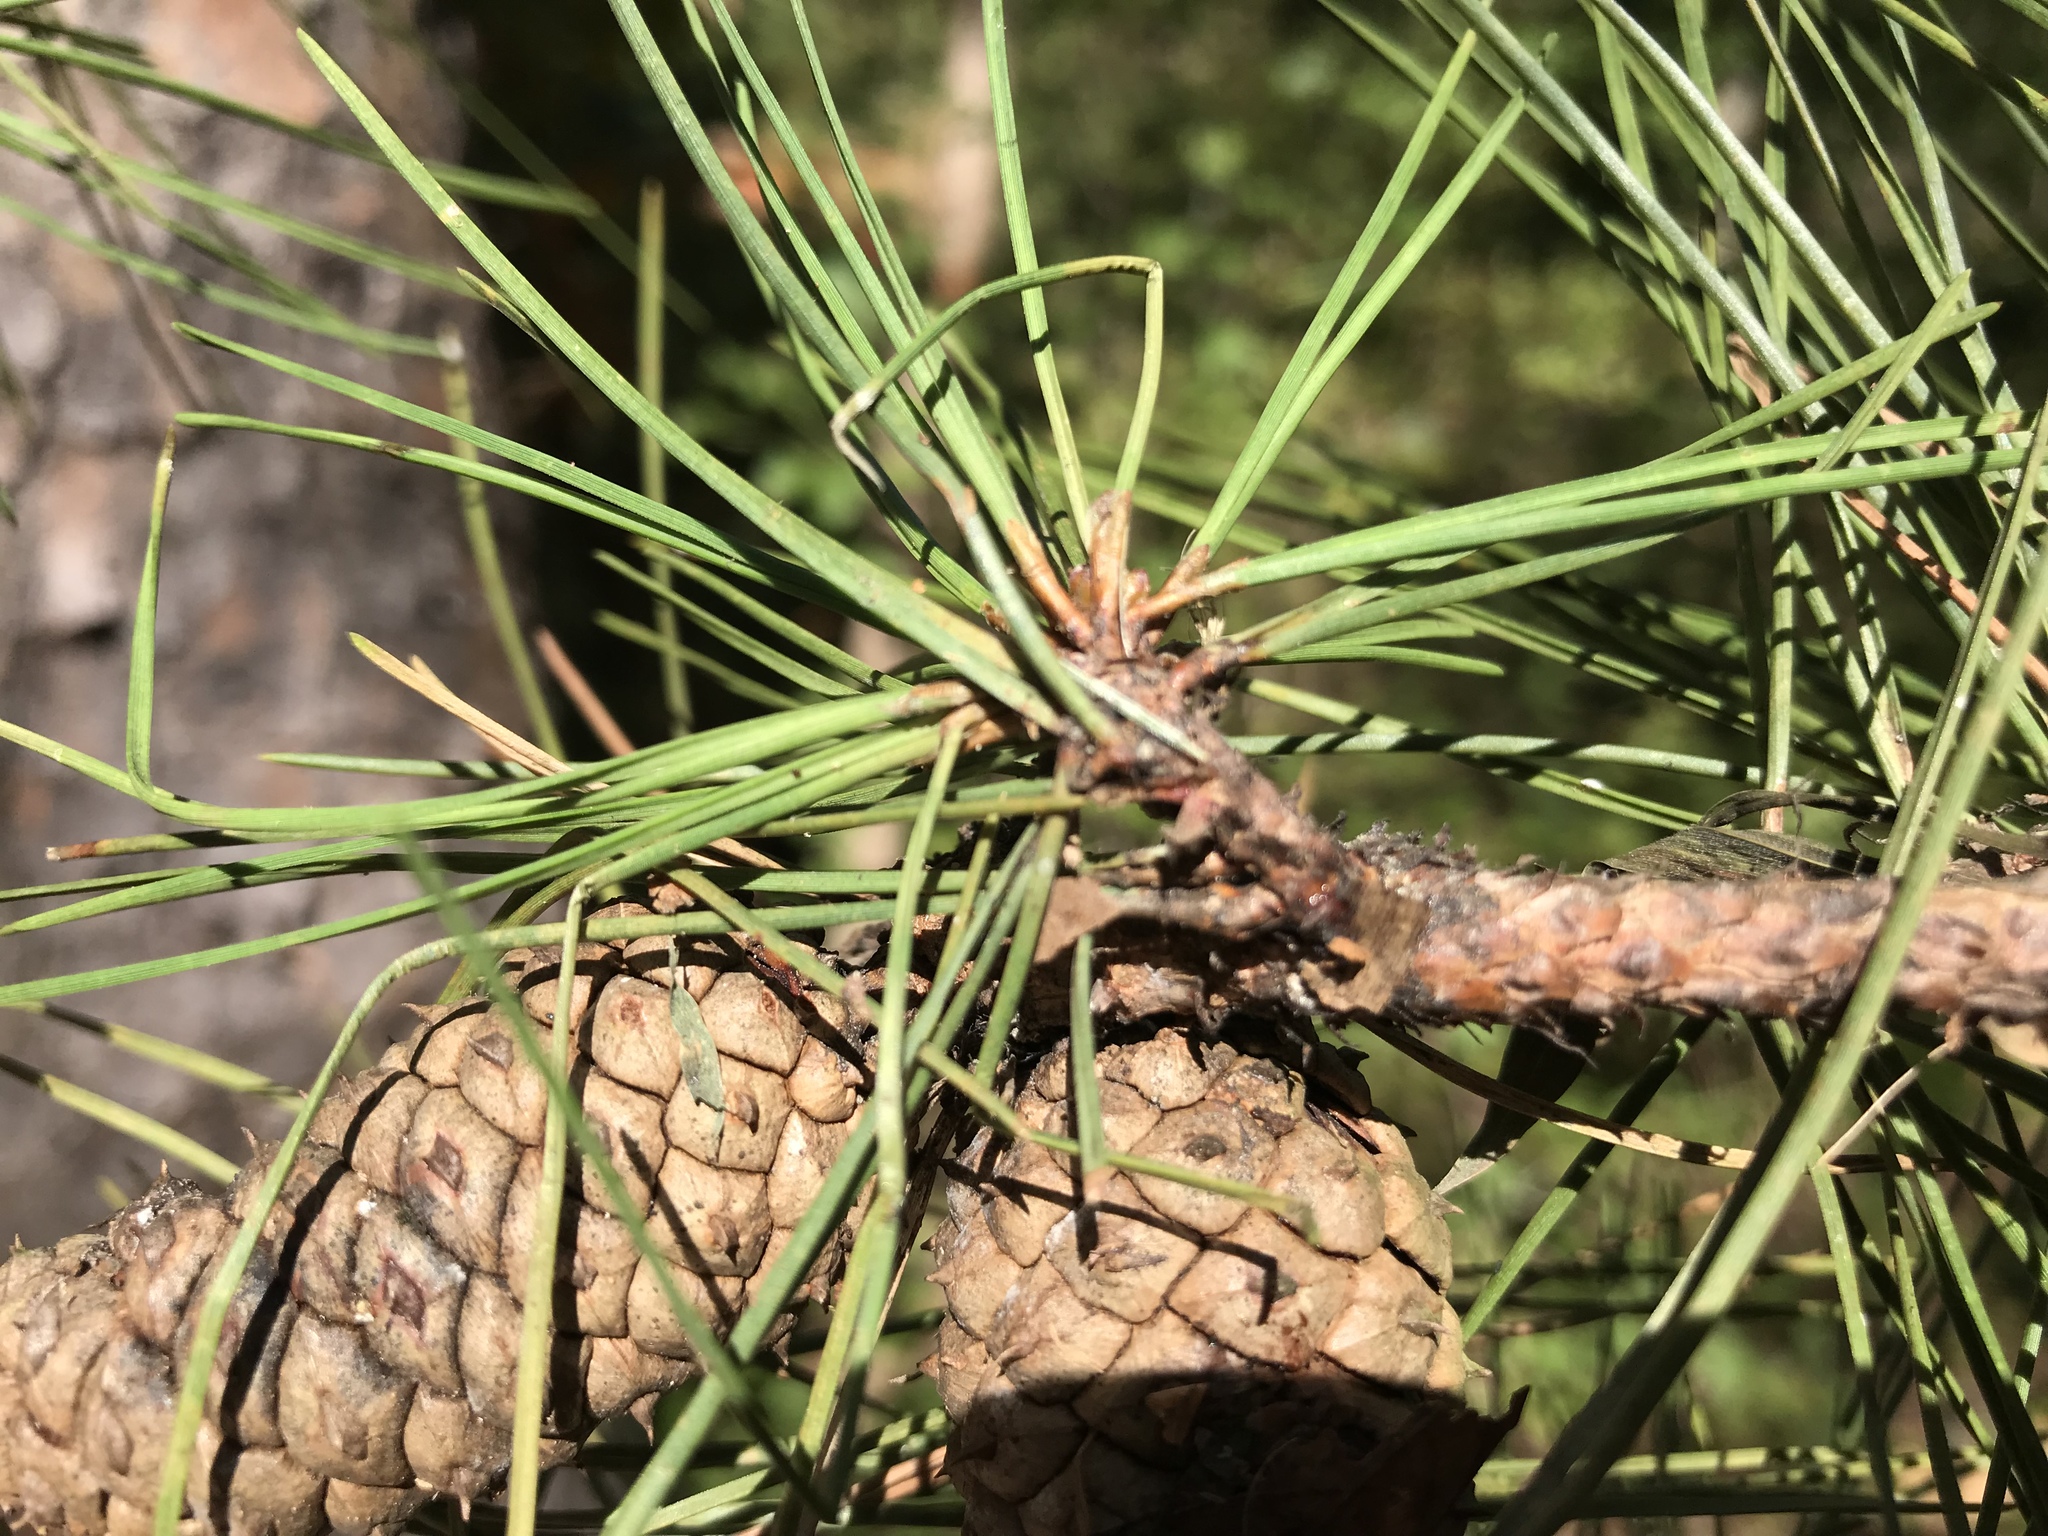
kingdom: Plantae
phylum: Tracheophyta
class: Pinopsida
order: Pinales
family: Pinaceae
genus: Pinus
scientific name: Pinus echinata
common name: Shortleaf pine
